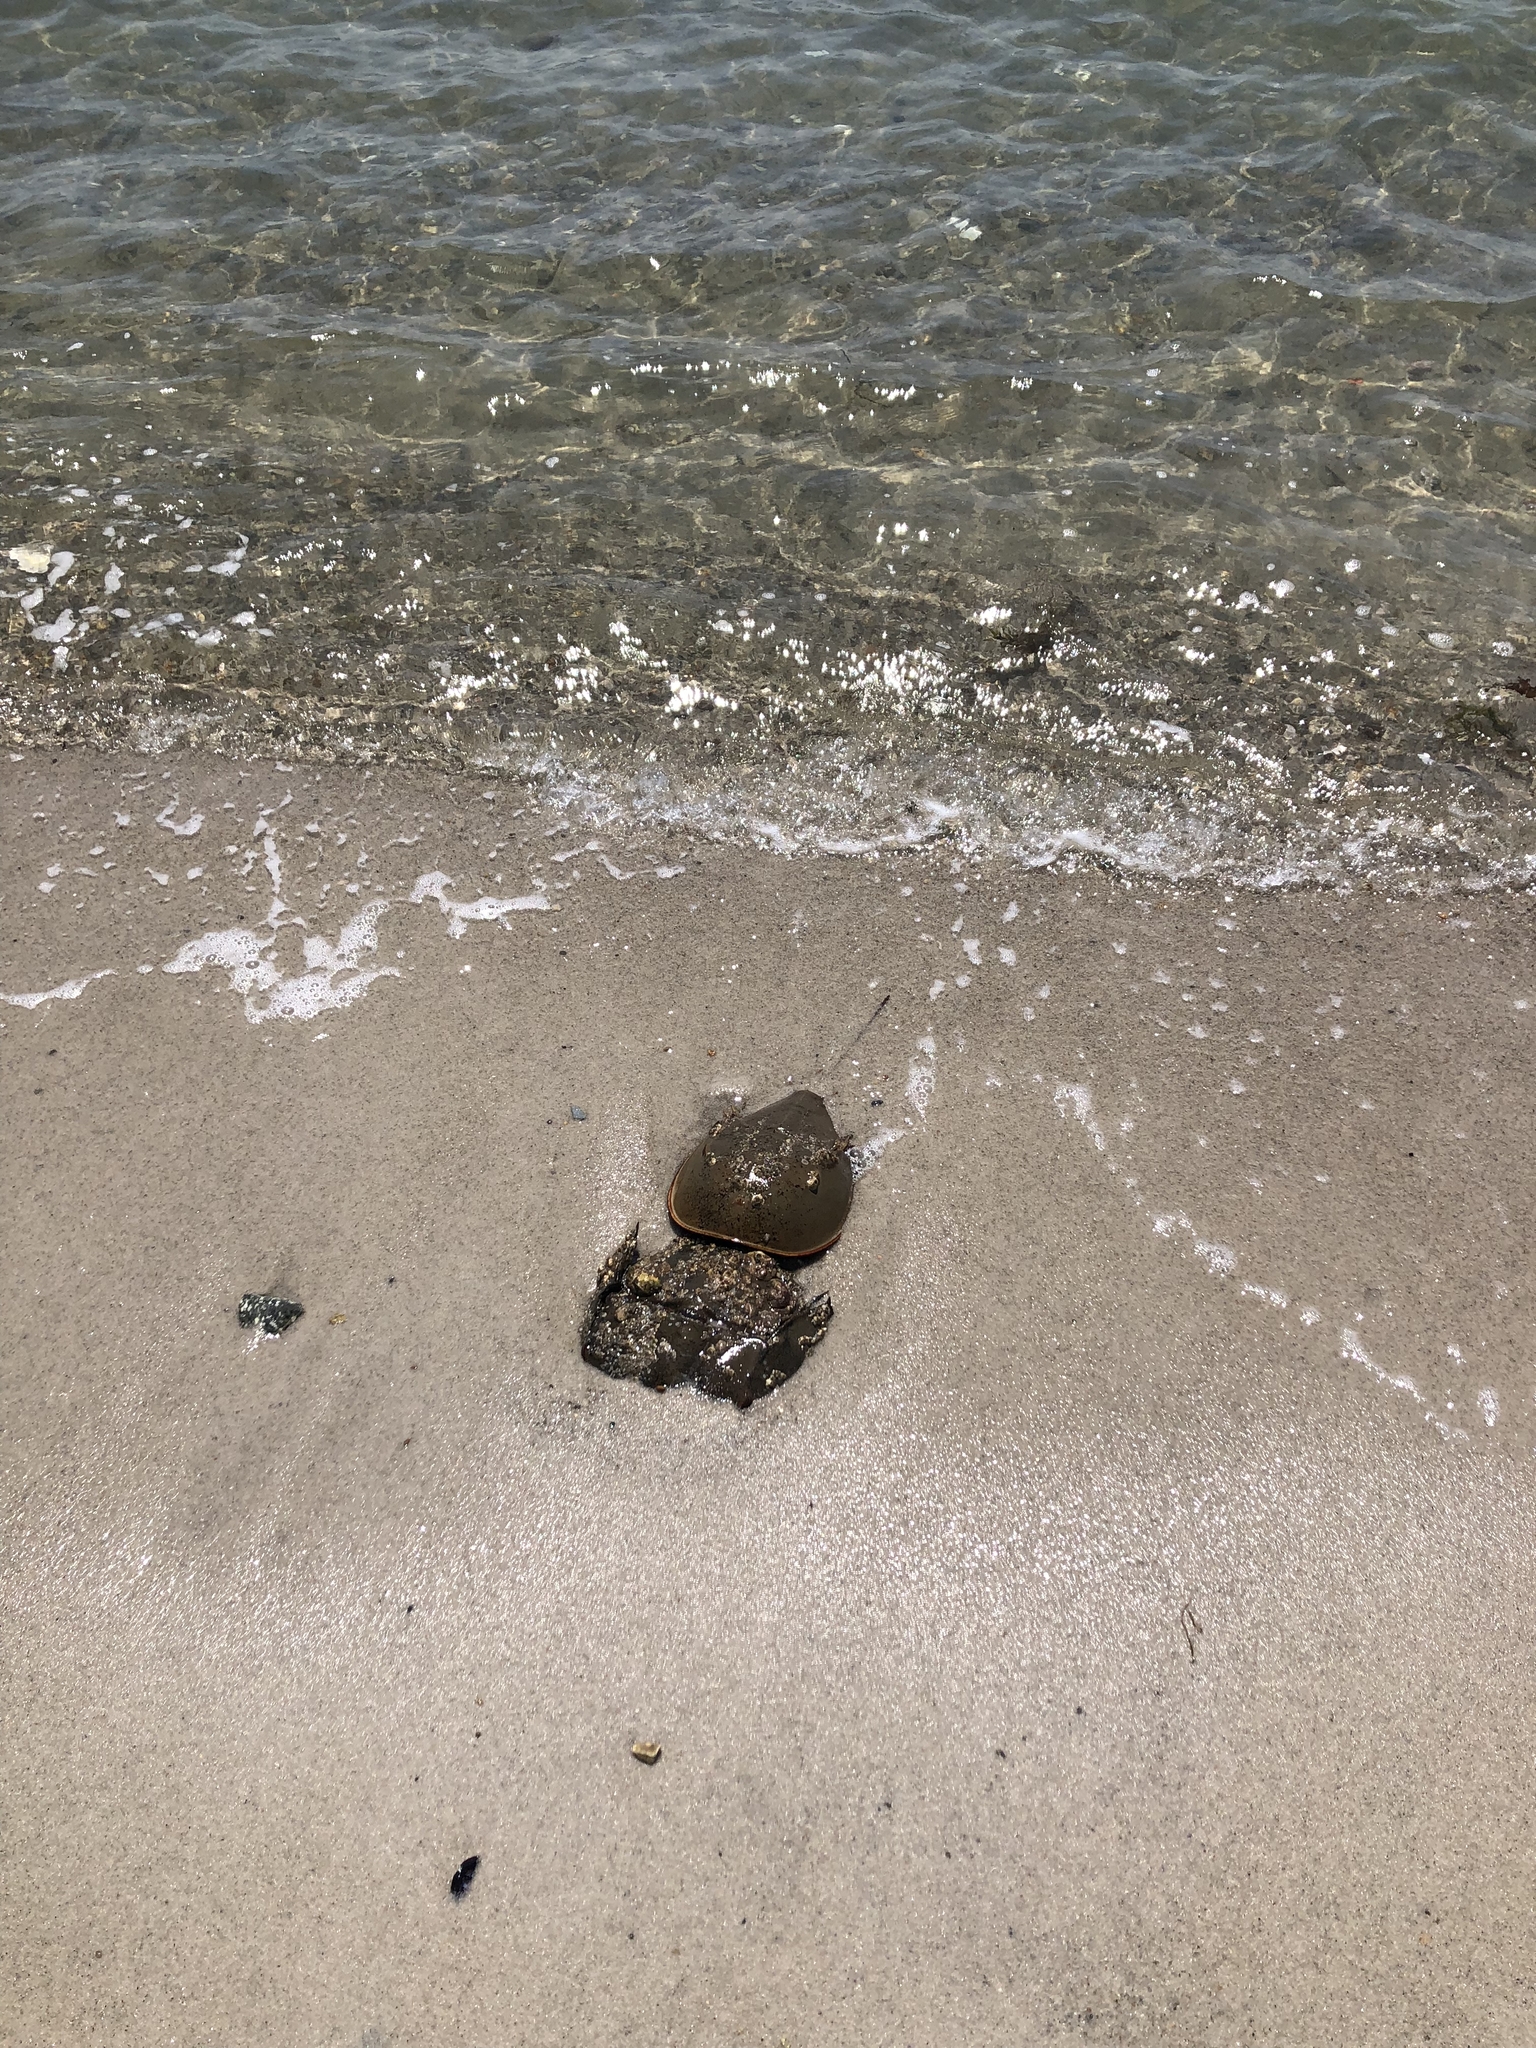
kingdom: Animalia
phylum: Arthropoda
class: Merostomata
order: Xiphosurida
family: Limulidae
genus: Limulus
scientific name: Limulus polyphemus
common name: Horseshoe crab
